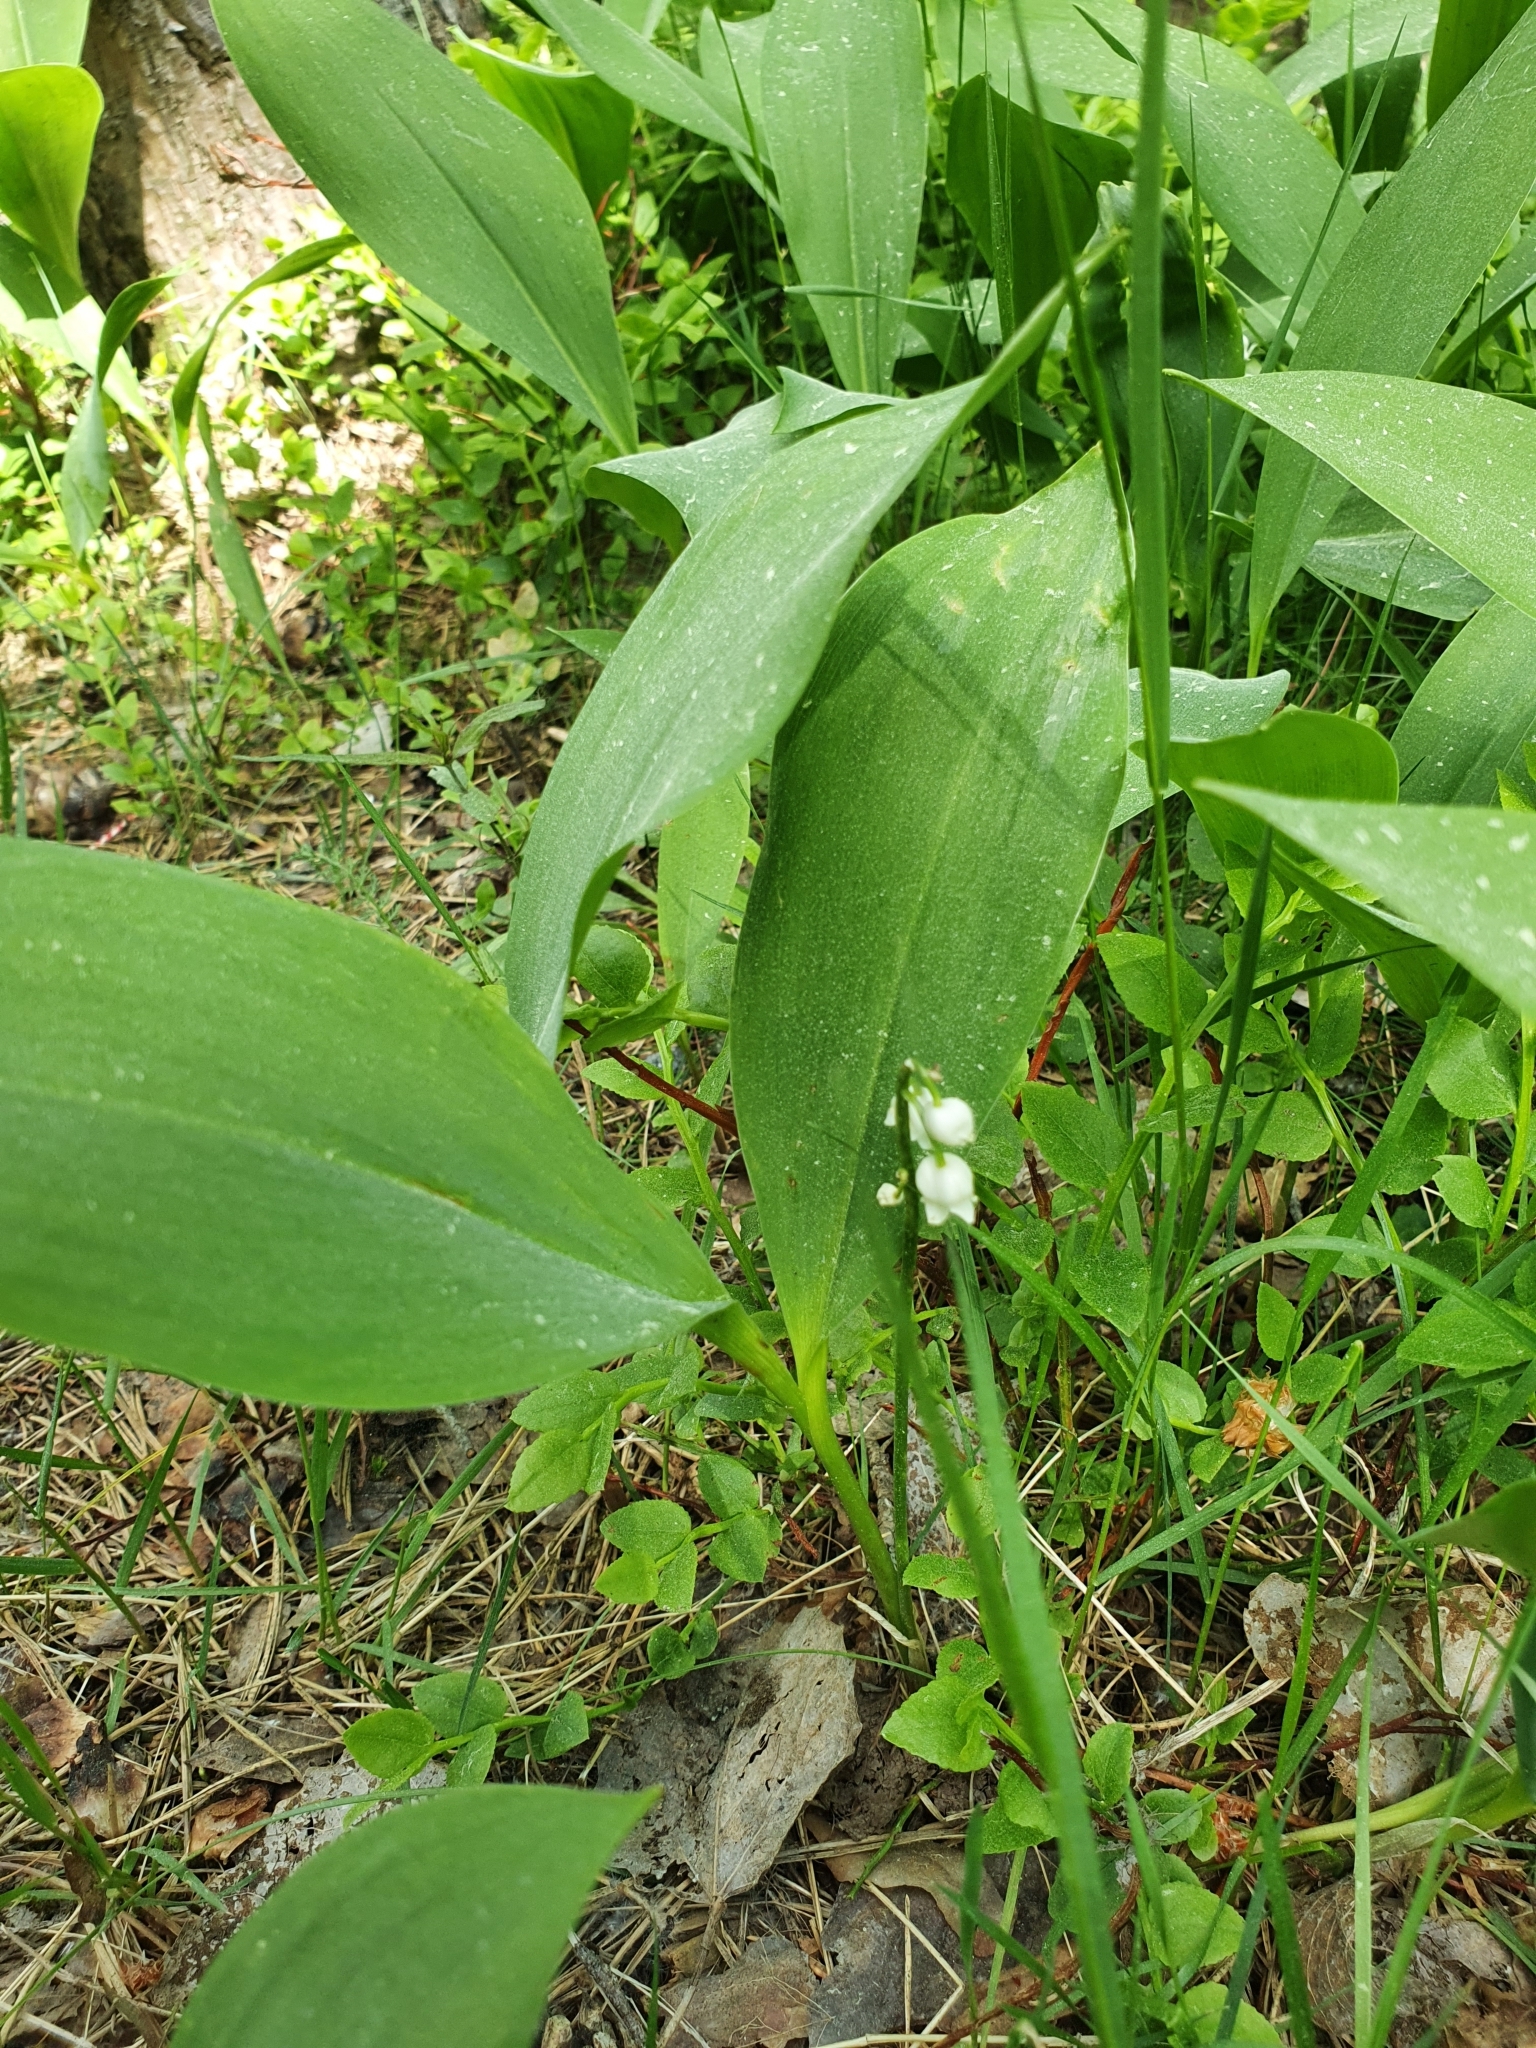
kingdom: Plantae
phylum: Tracheophyta
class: Liliopsida
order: Asparagales
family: Asparagaceae
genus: Convallaria
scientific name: Convallaria majalis
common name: Lily-of-the-valley
